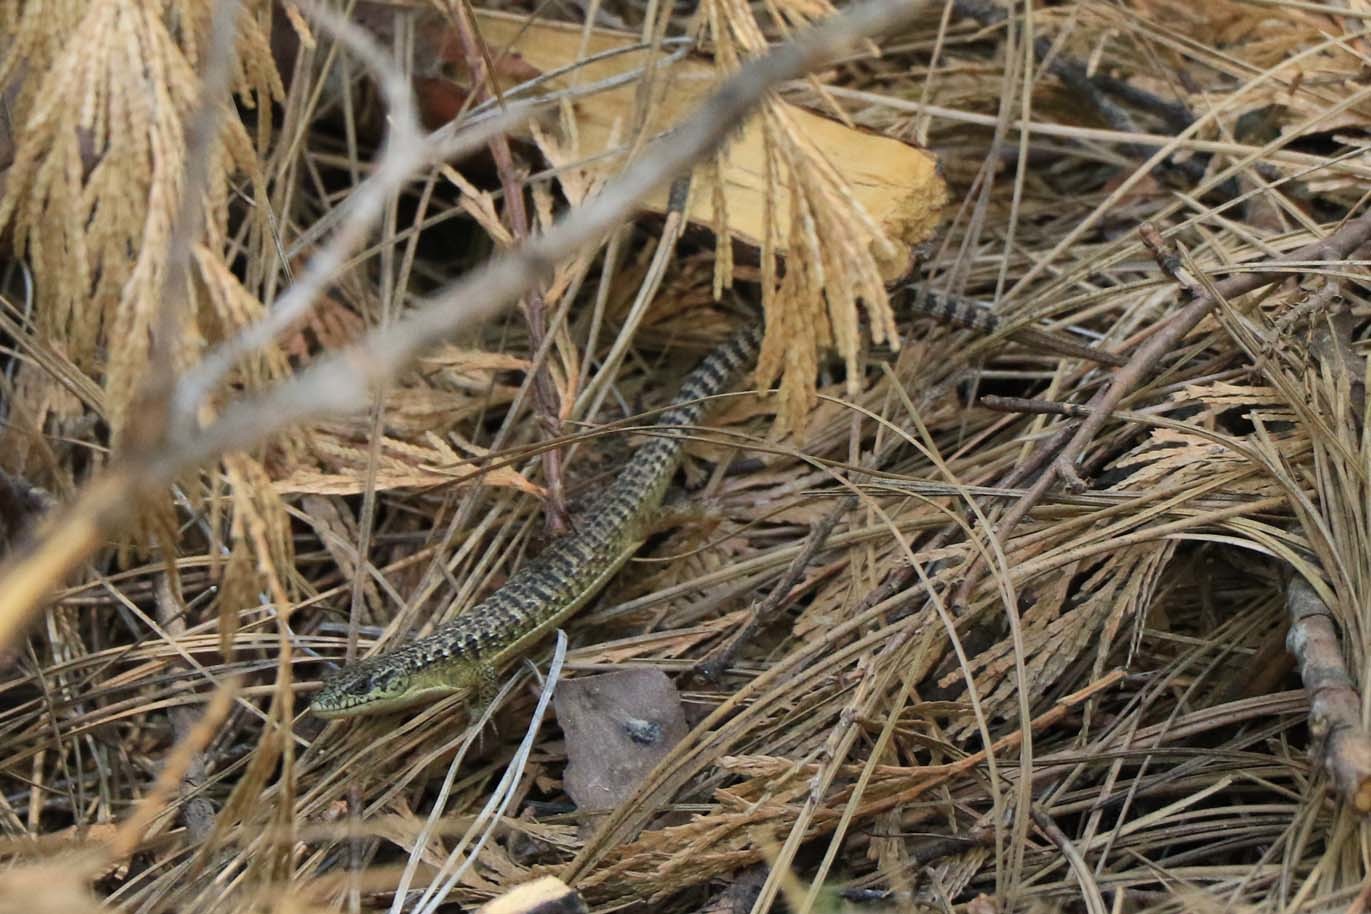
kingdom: Animalia
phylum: Chordata
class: Squamata
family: Anguidae
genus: Elgaria
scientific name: Elgaria coerulea
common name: Northern alligator lizard
